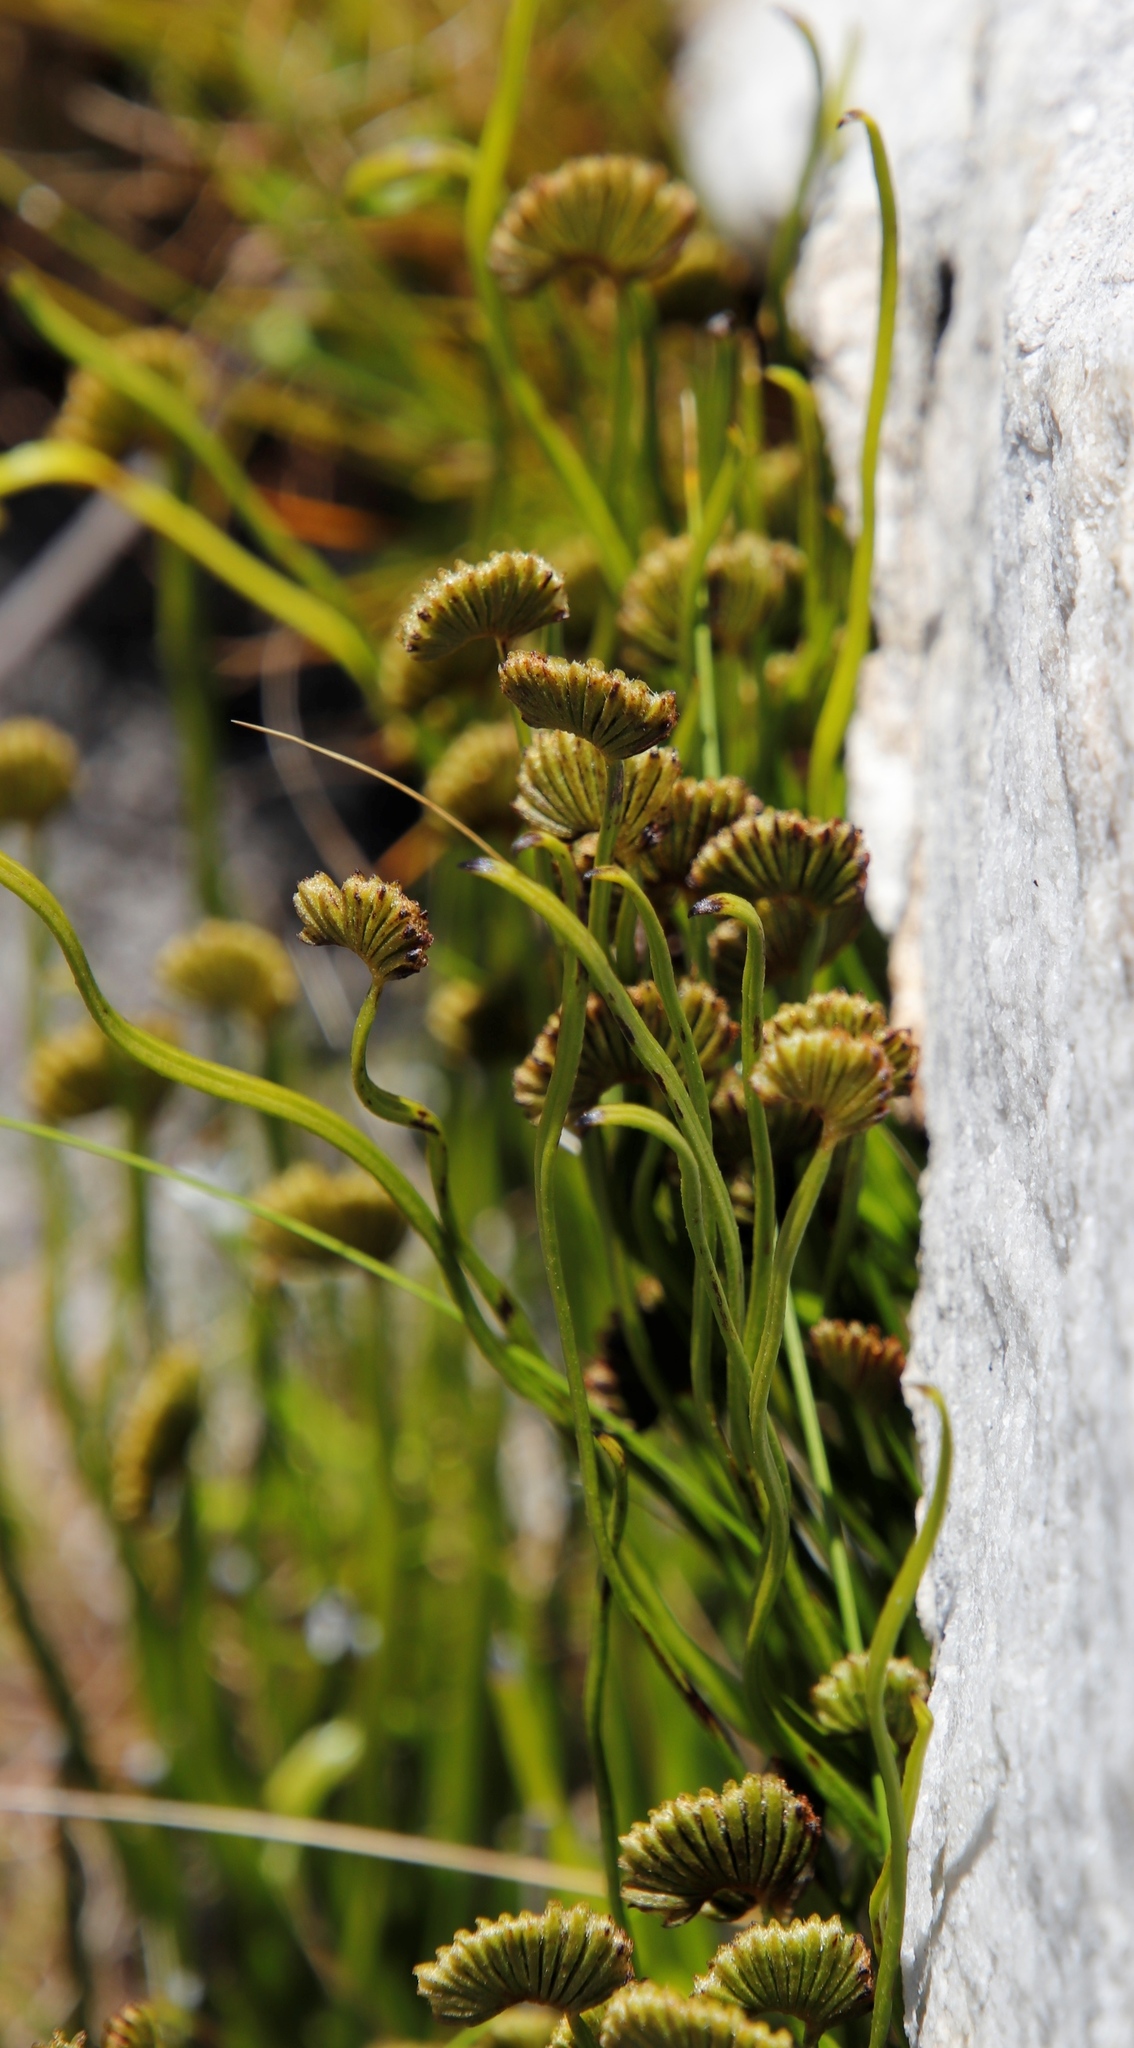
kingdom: Plantae
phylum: Tracheophyta
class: Polypodiopsida
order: Schizaeales
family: Schizaeaceae
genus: Schizaea
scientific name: Schizaea pectinata
